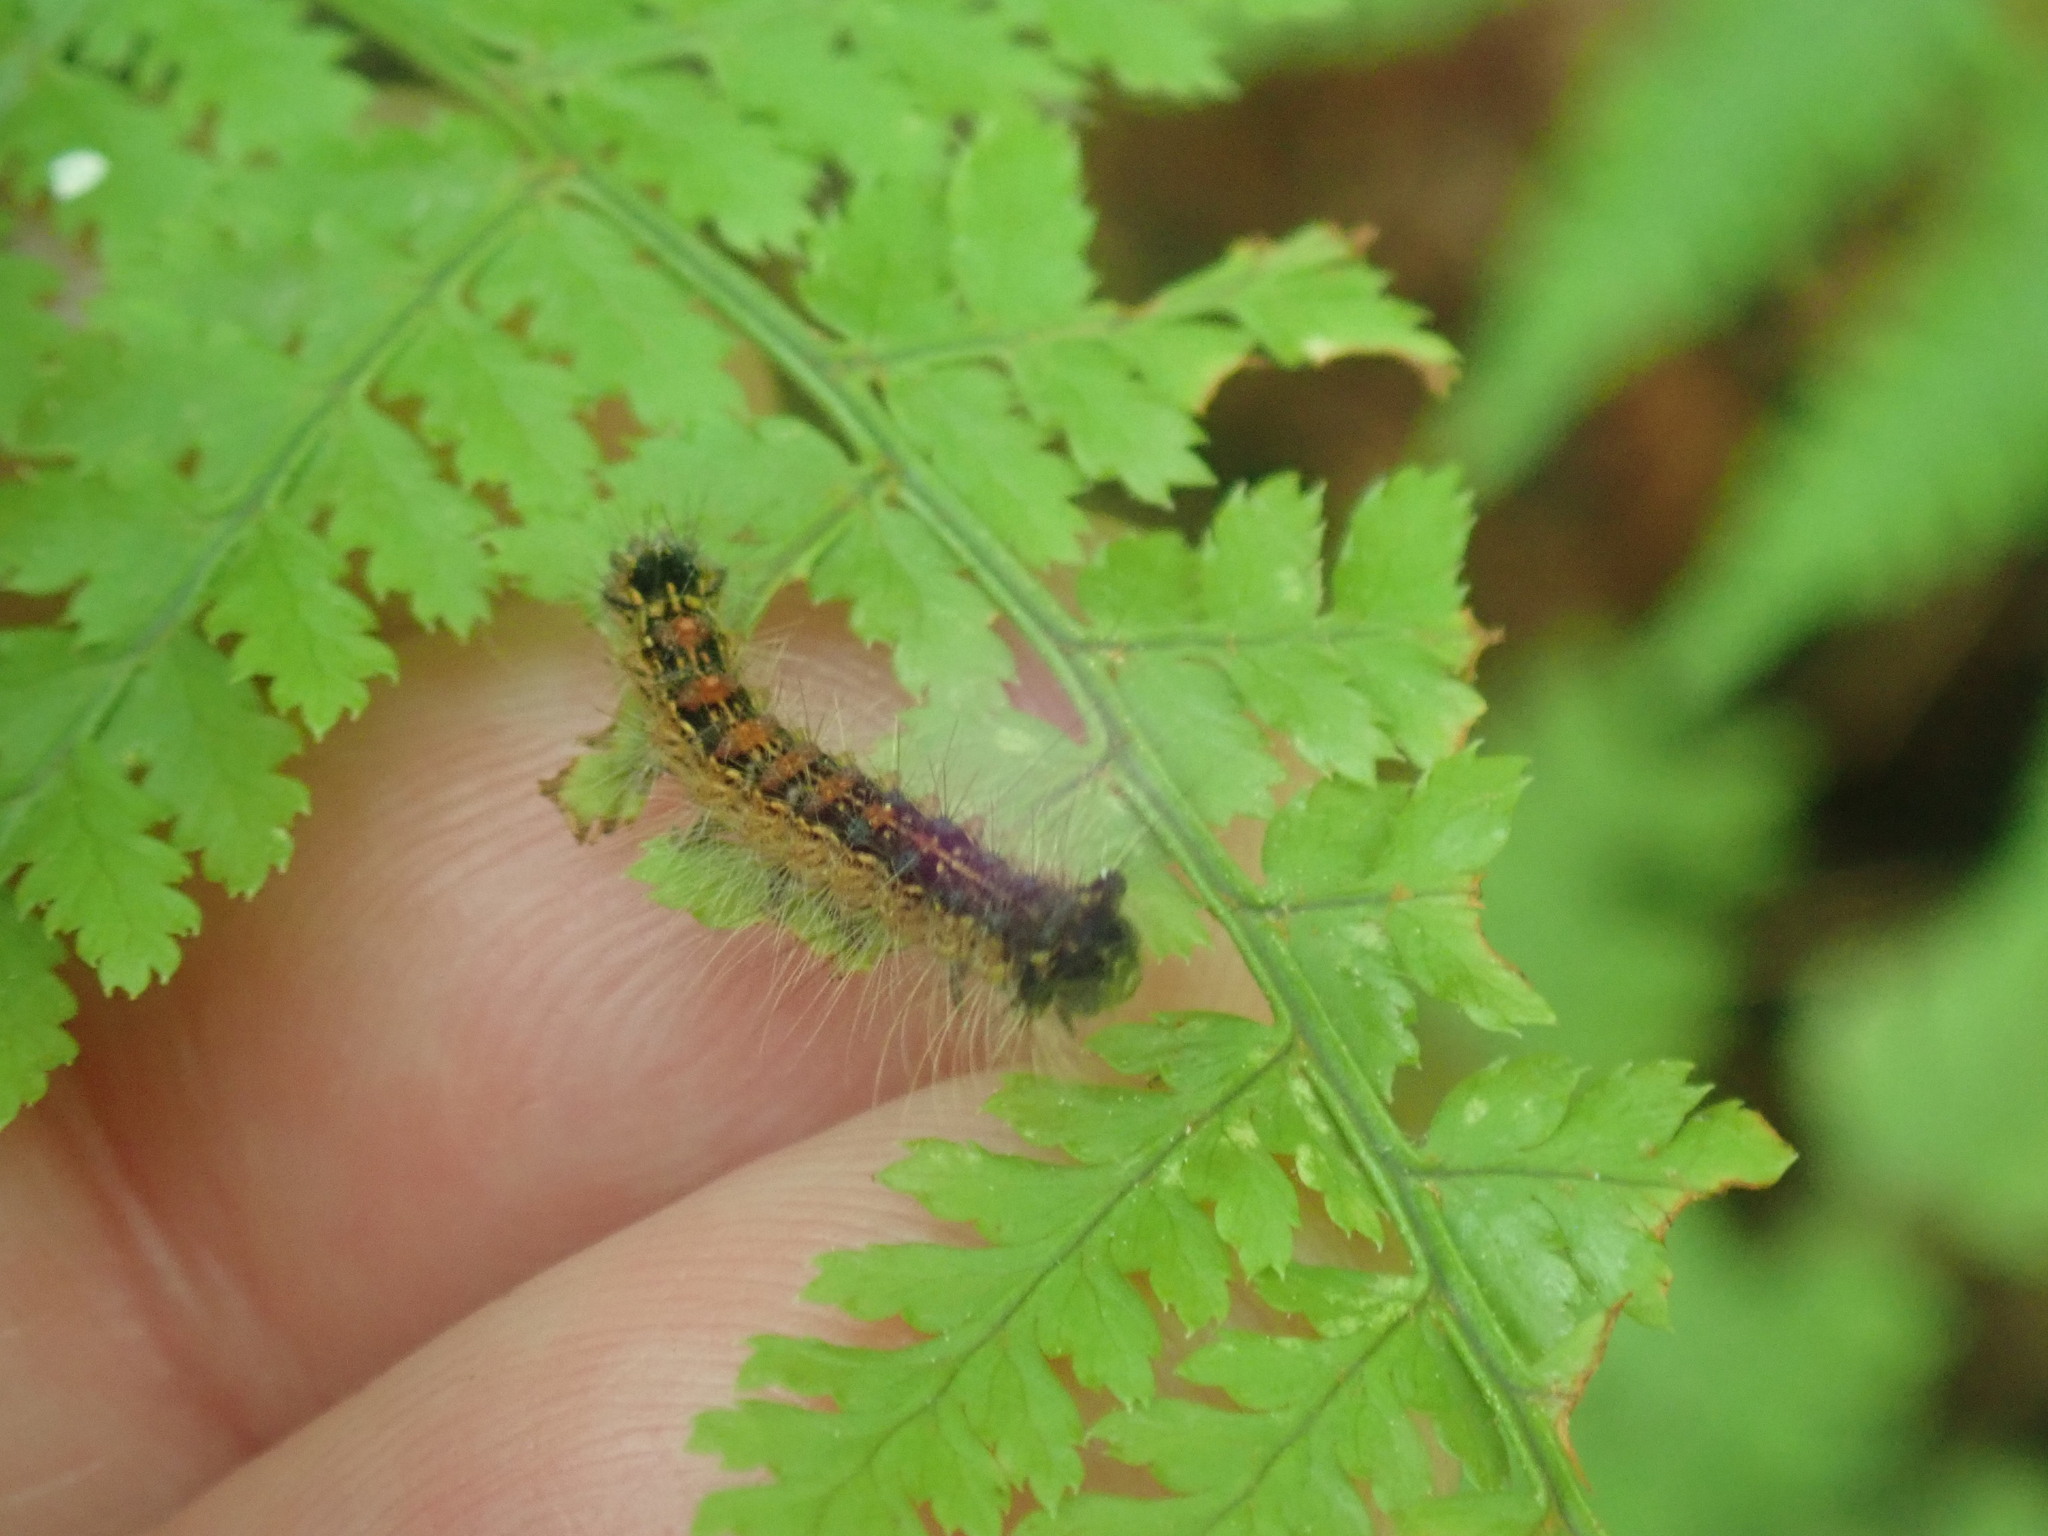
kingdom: Animalia
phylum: Arthropoda
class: Insecta
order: Lepidoptera
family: Erebidae
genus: Lymantria
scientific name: Lymantria dispar
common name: Gypsy moth
